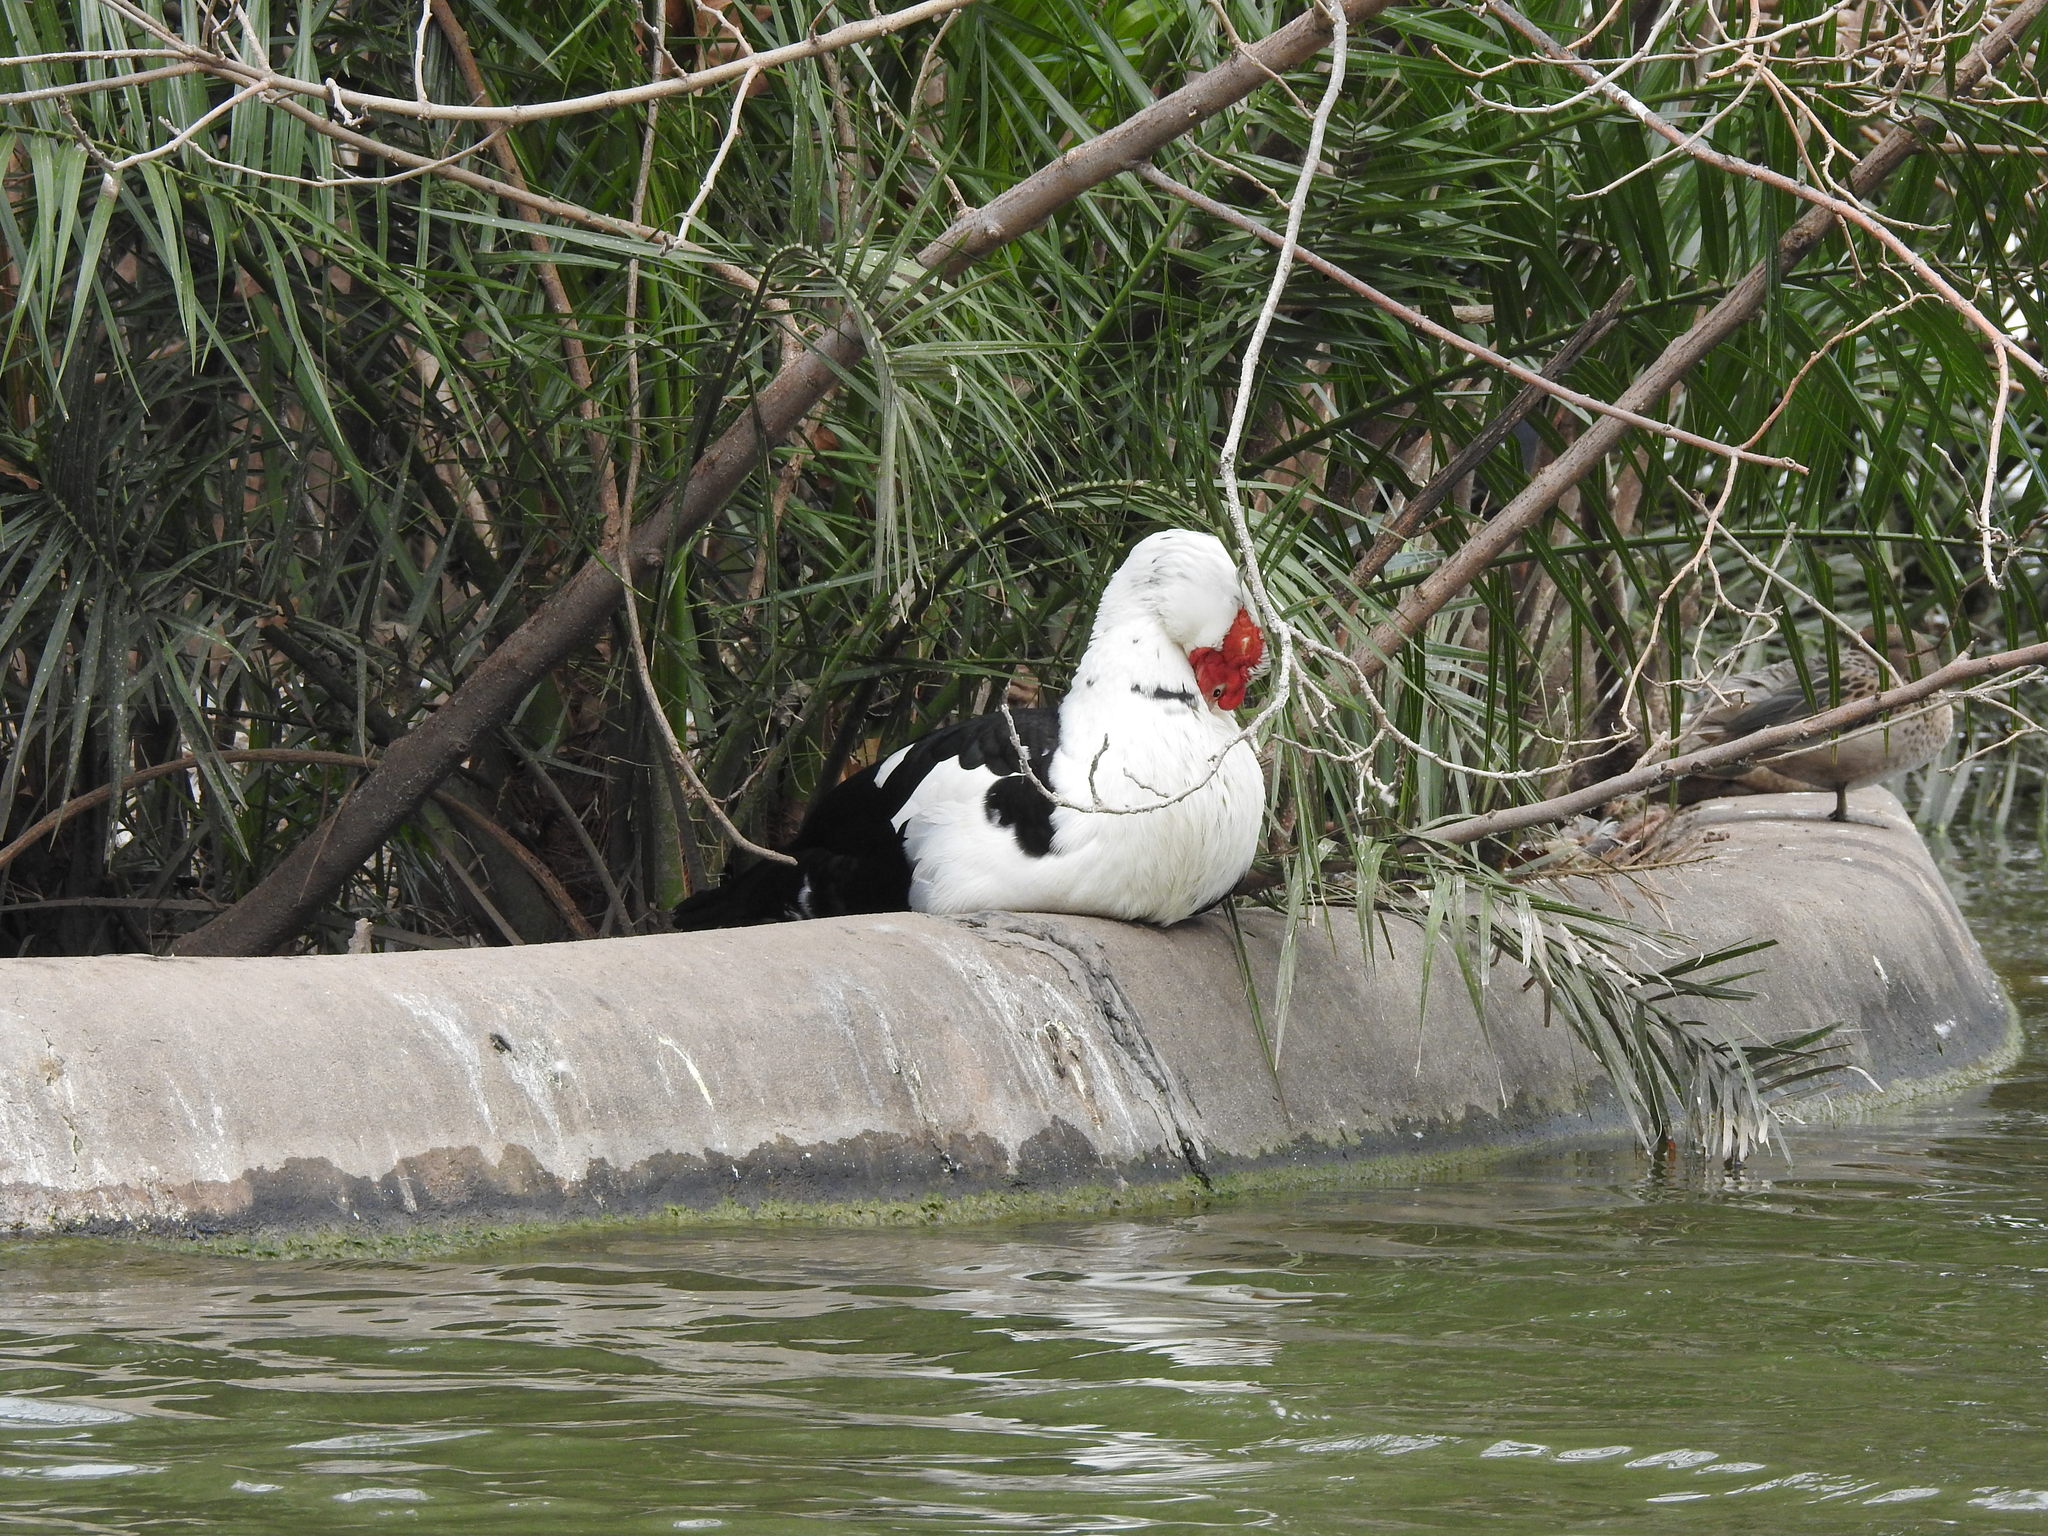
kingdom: Animalia
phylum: Chordata
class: Aves
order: Anseriformes
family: Anatidae
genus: Cairina
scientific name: Cairina moschata
